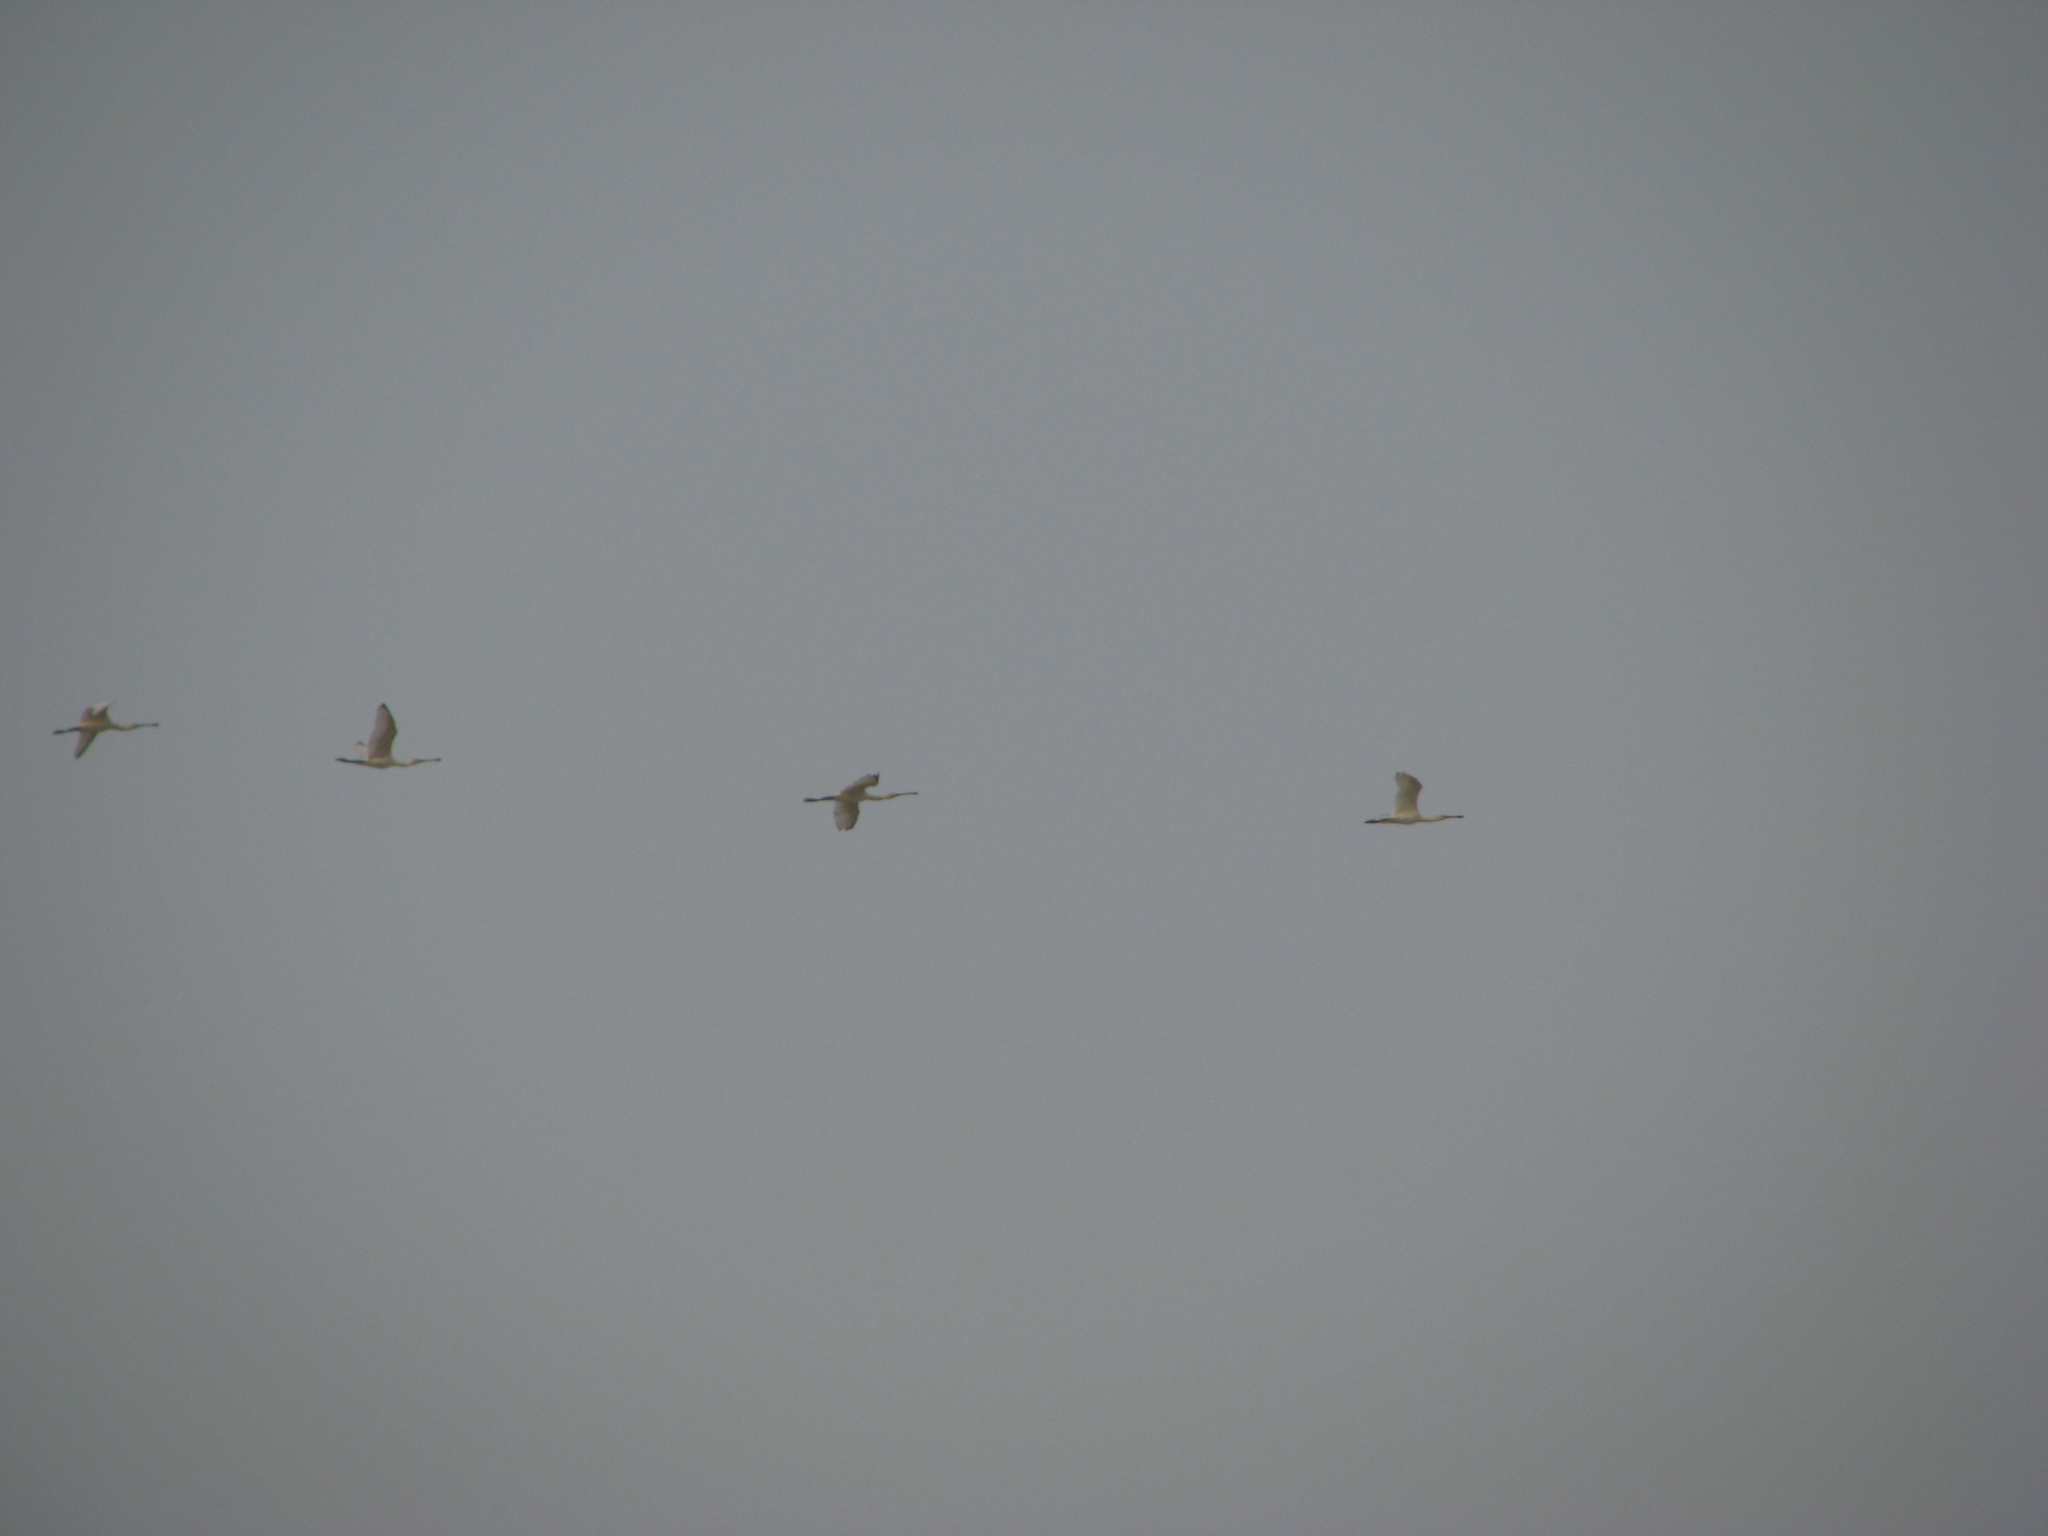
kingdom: Animalia
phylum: Chordata
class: Aves
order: Pelecaniformes
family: Threskiornithidae
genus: Platalea
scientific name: Platalea leucorodia
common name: Eurasian spoonbill
